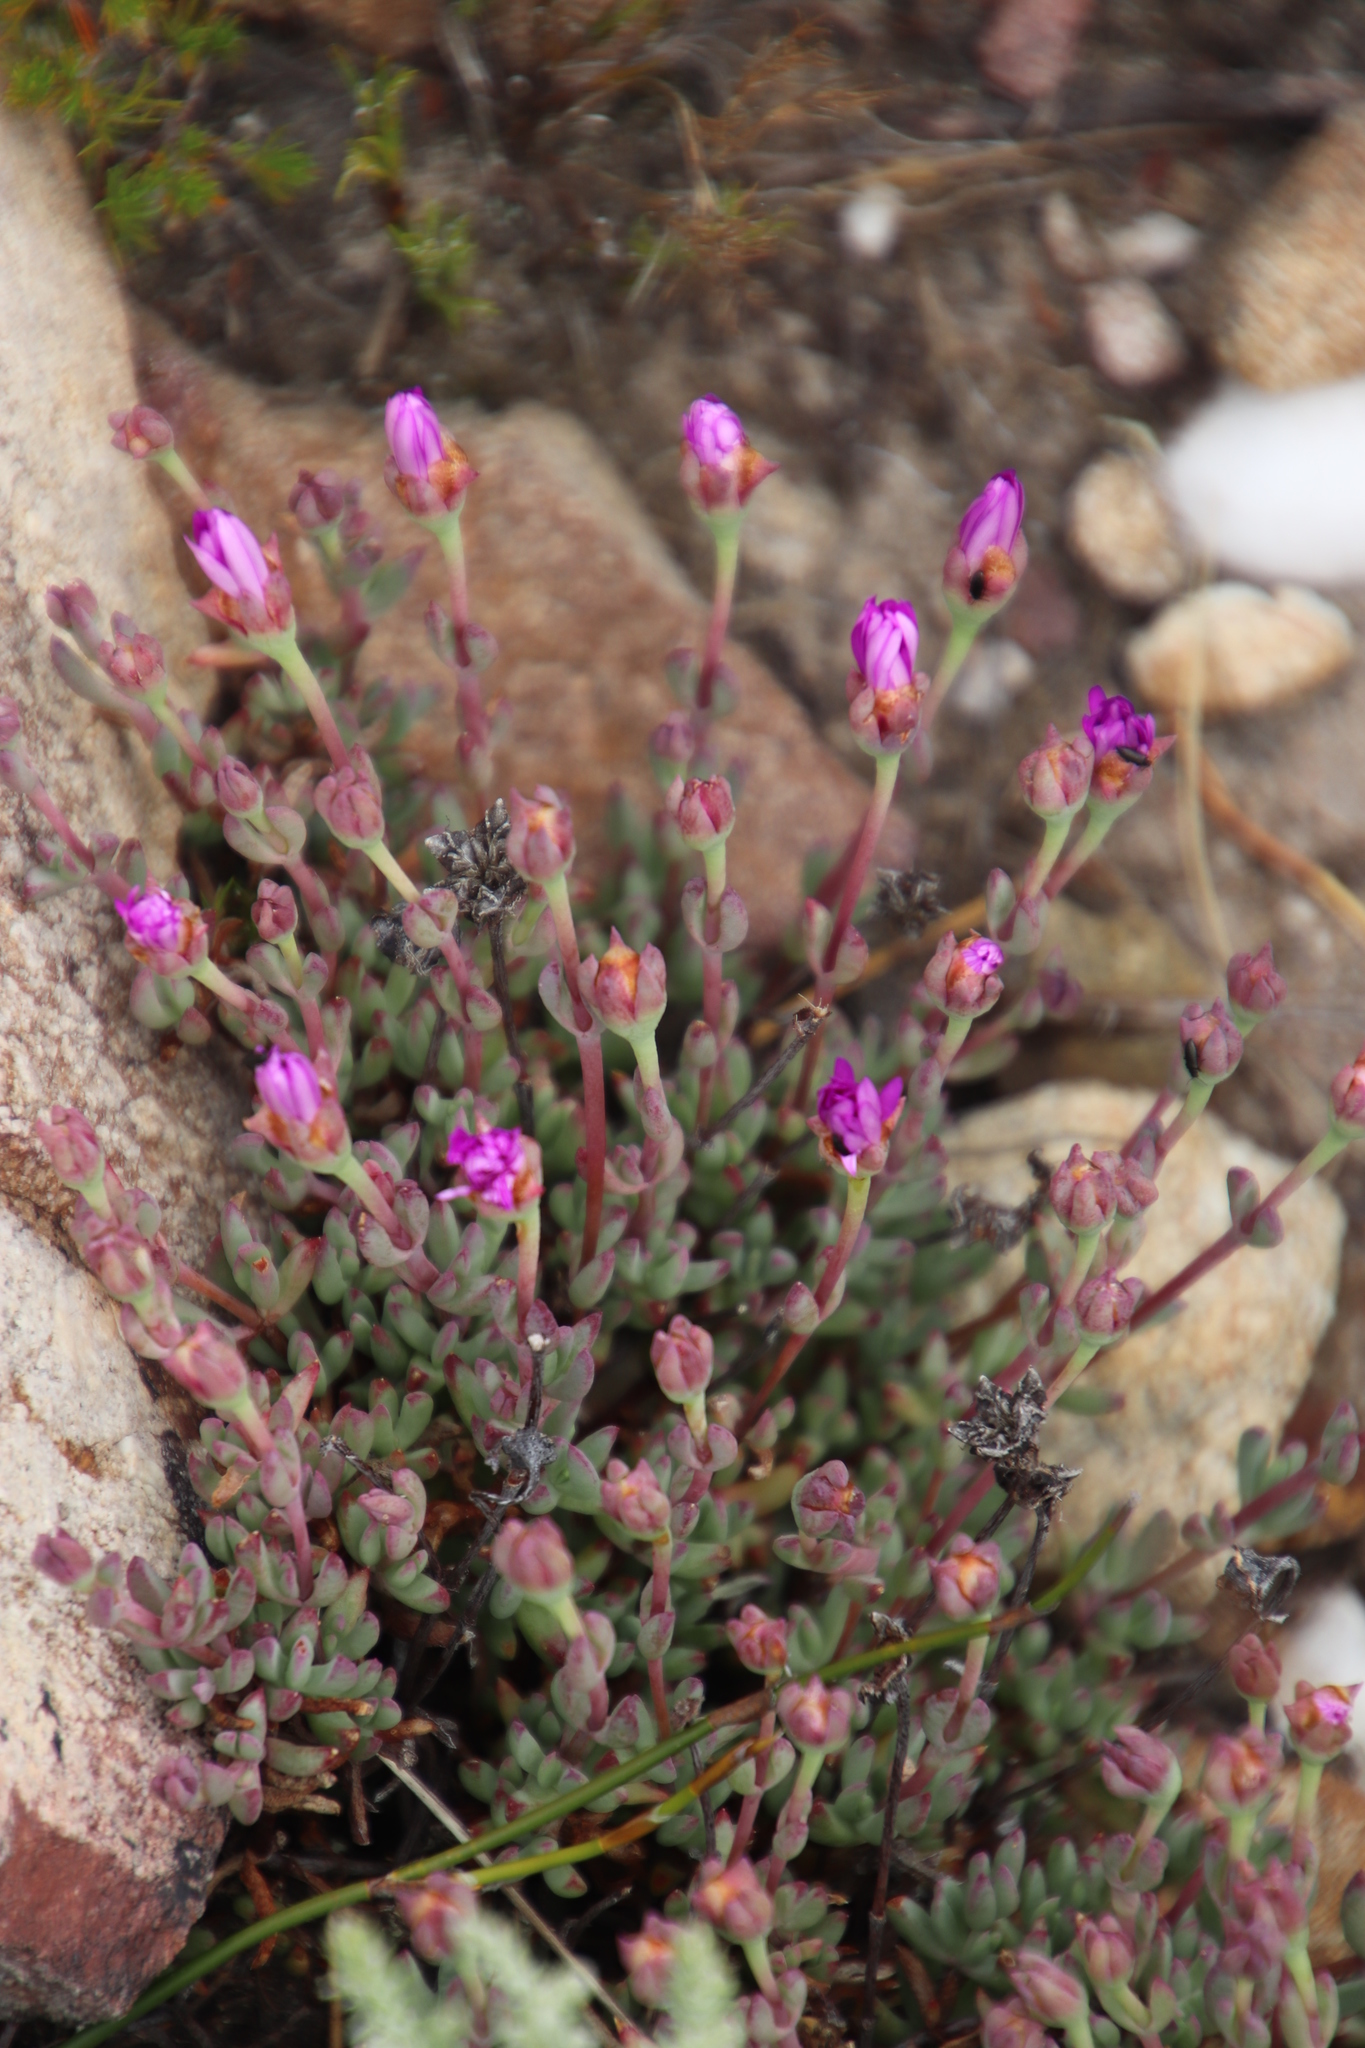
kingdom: Plantae
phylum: Tracheophyta
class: Magnoliopsida
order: Caryophyllales
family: Aizoaceae
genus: Lampranthus
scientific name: Lampranthus falcatus
